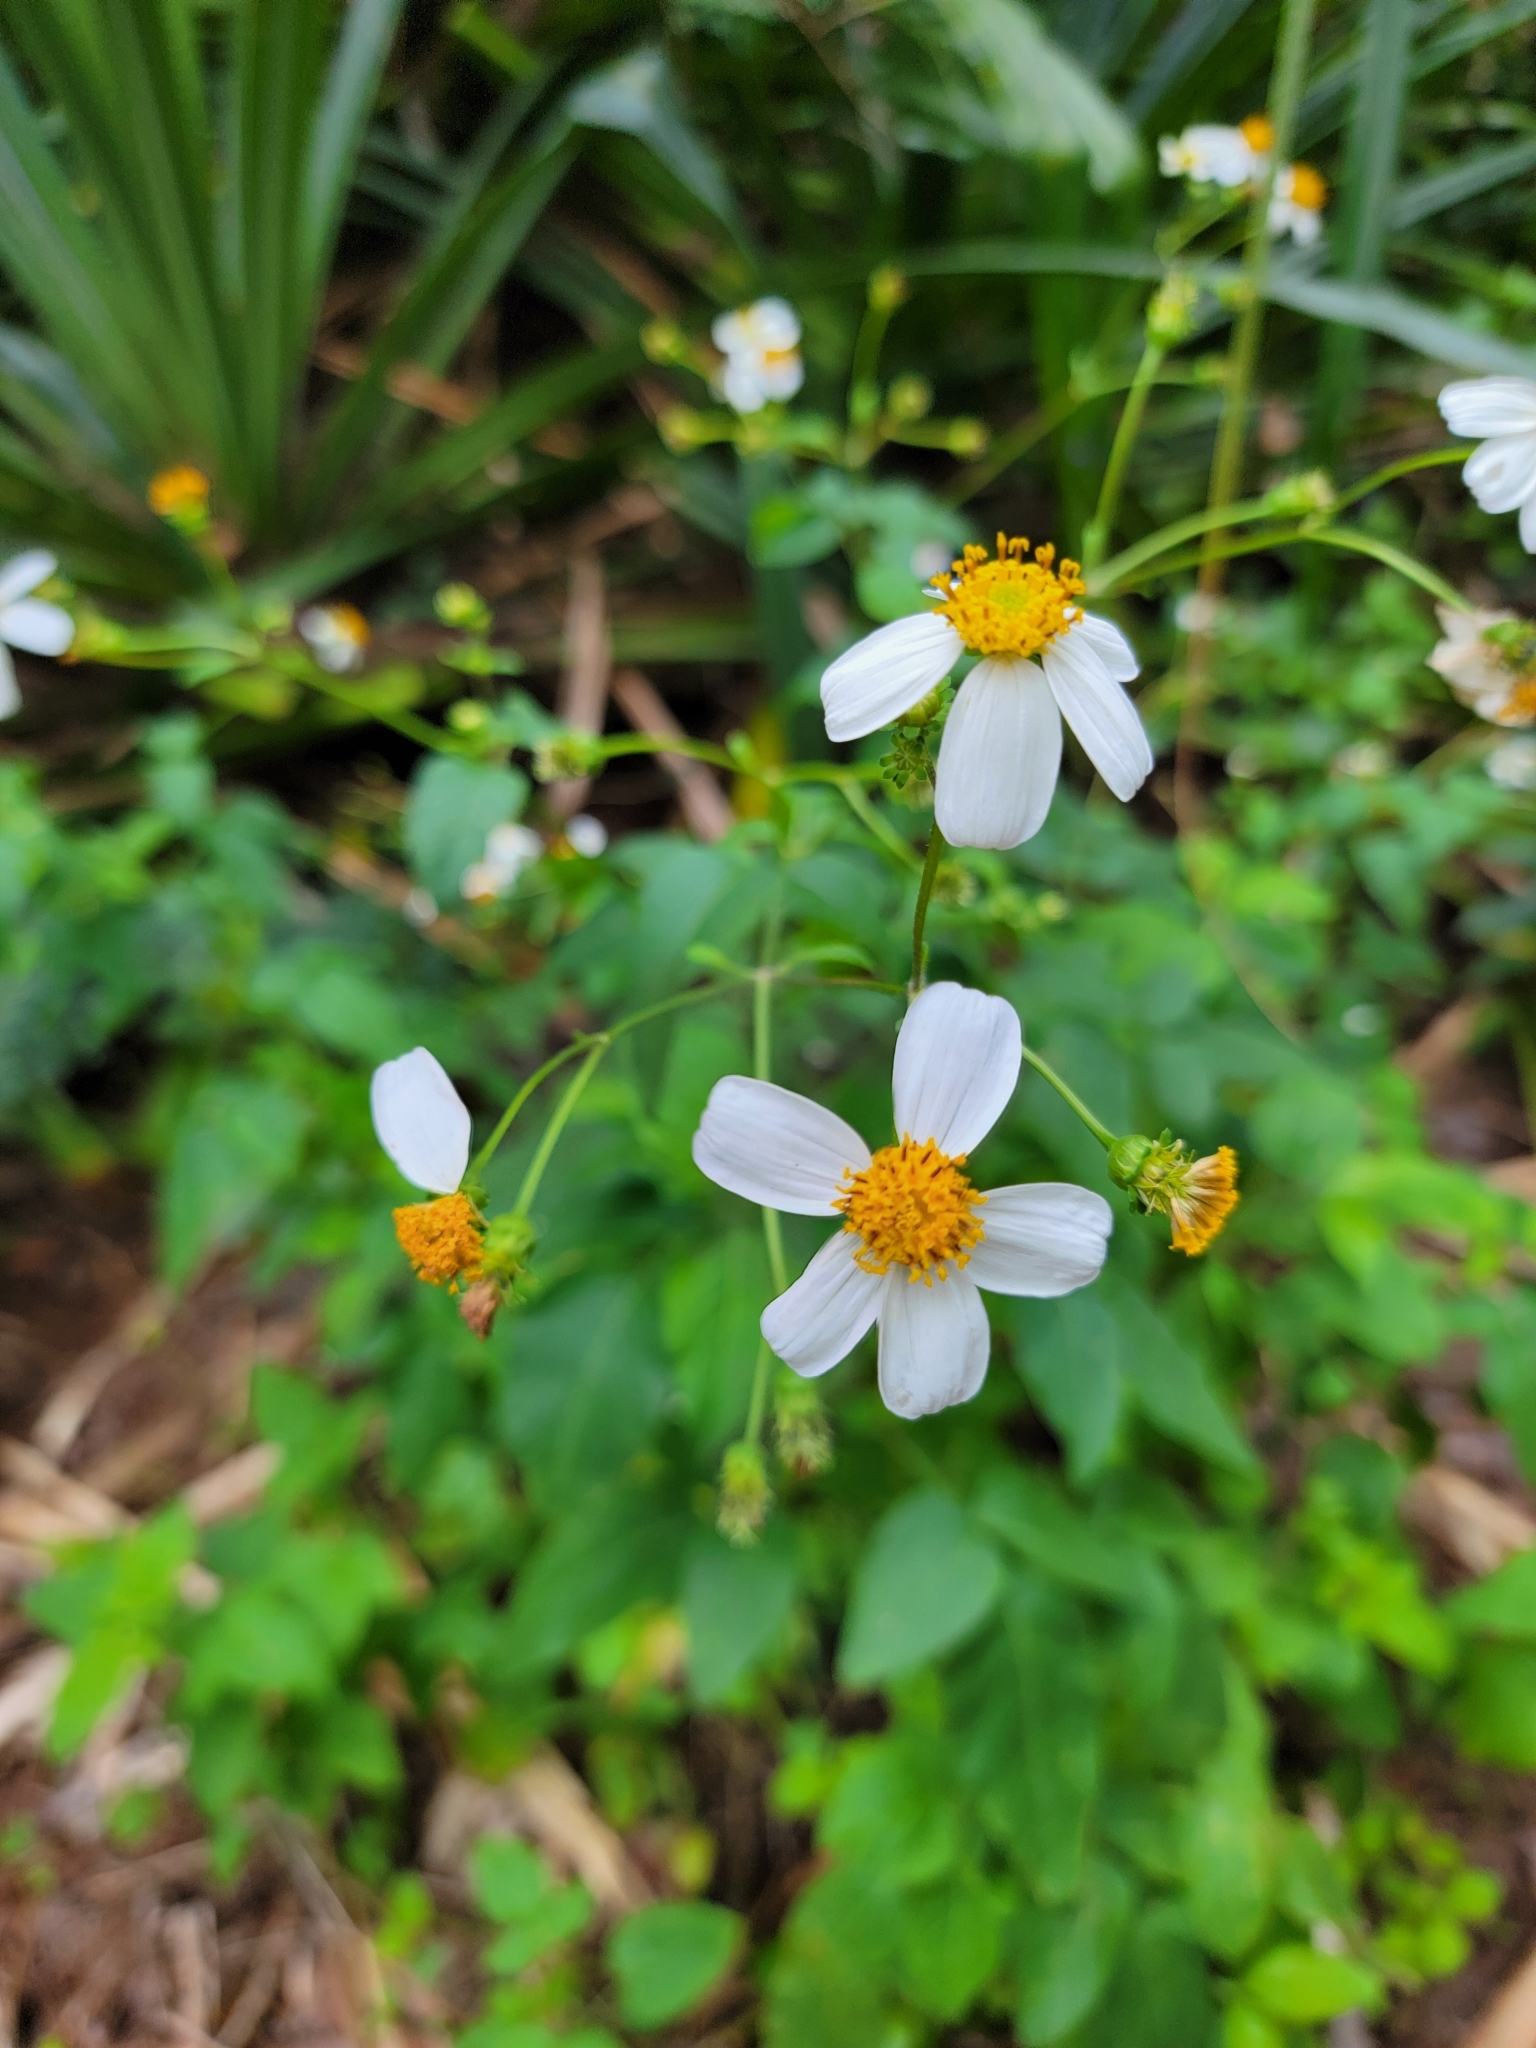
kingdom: Plantae
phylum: Tracheophyta
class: Magnoliopsida
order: Asterales
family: Asteraceae
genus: Bidens
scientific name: Bidens alba
